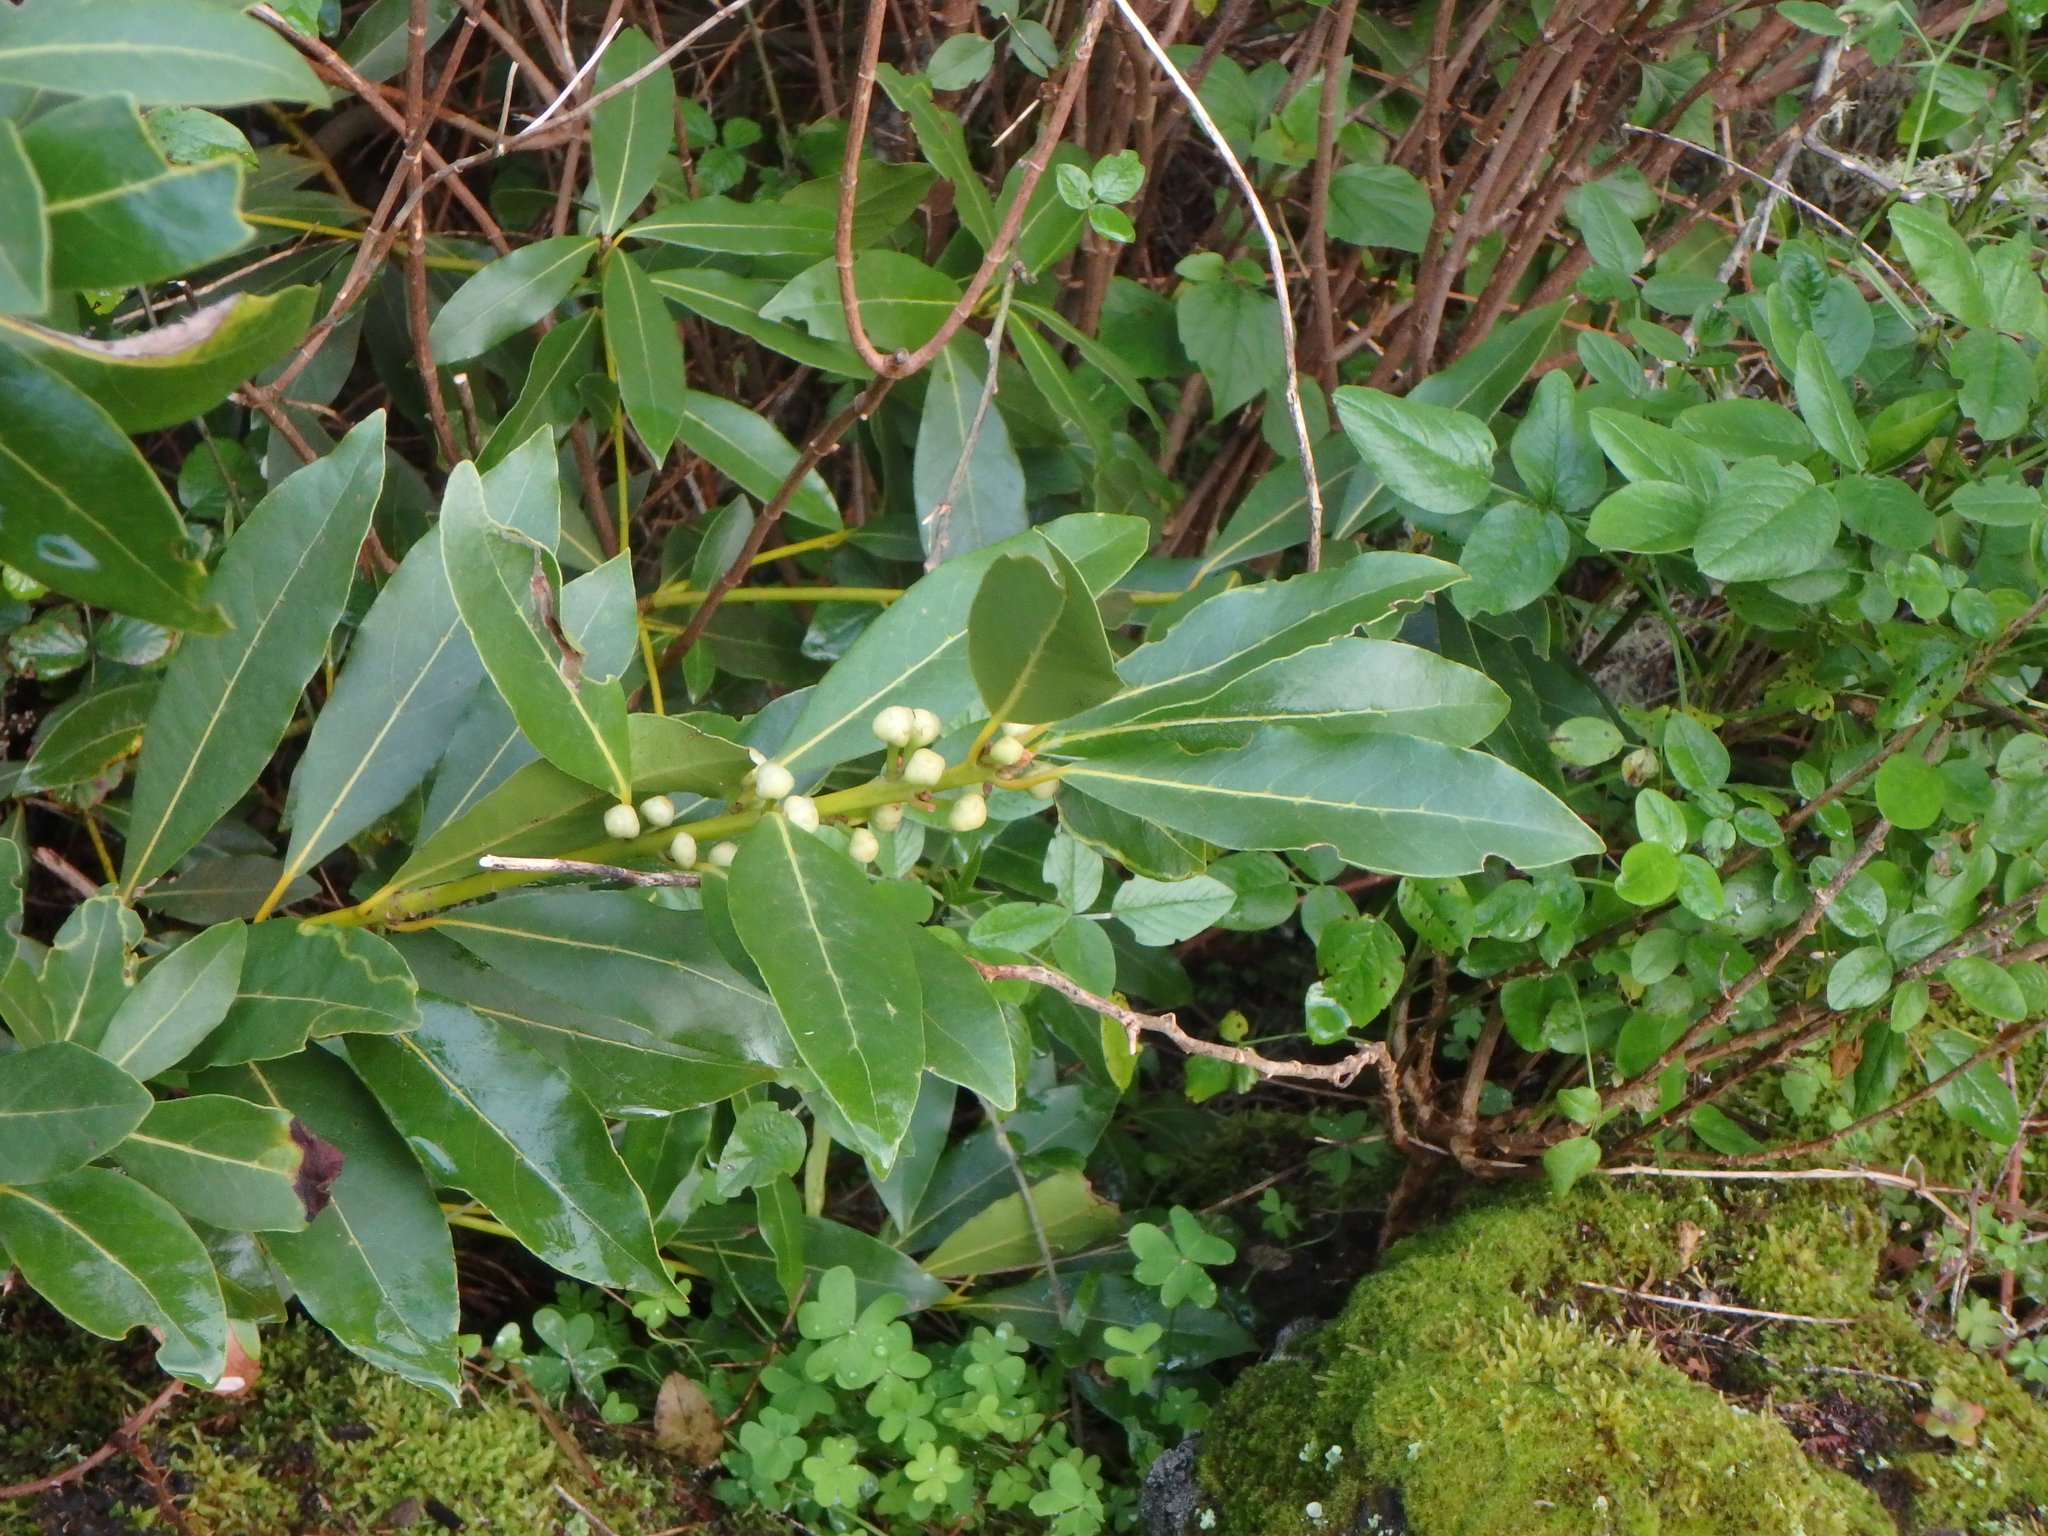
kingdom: Plantae
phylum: Tracheophyta
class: Magnoliopsida
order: Laurales
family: Lauraceae
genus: Laurus
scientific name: Laurus novocanariensis
